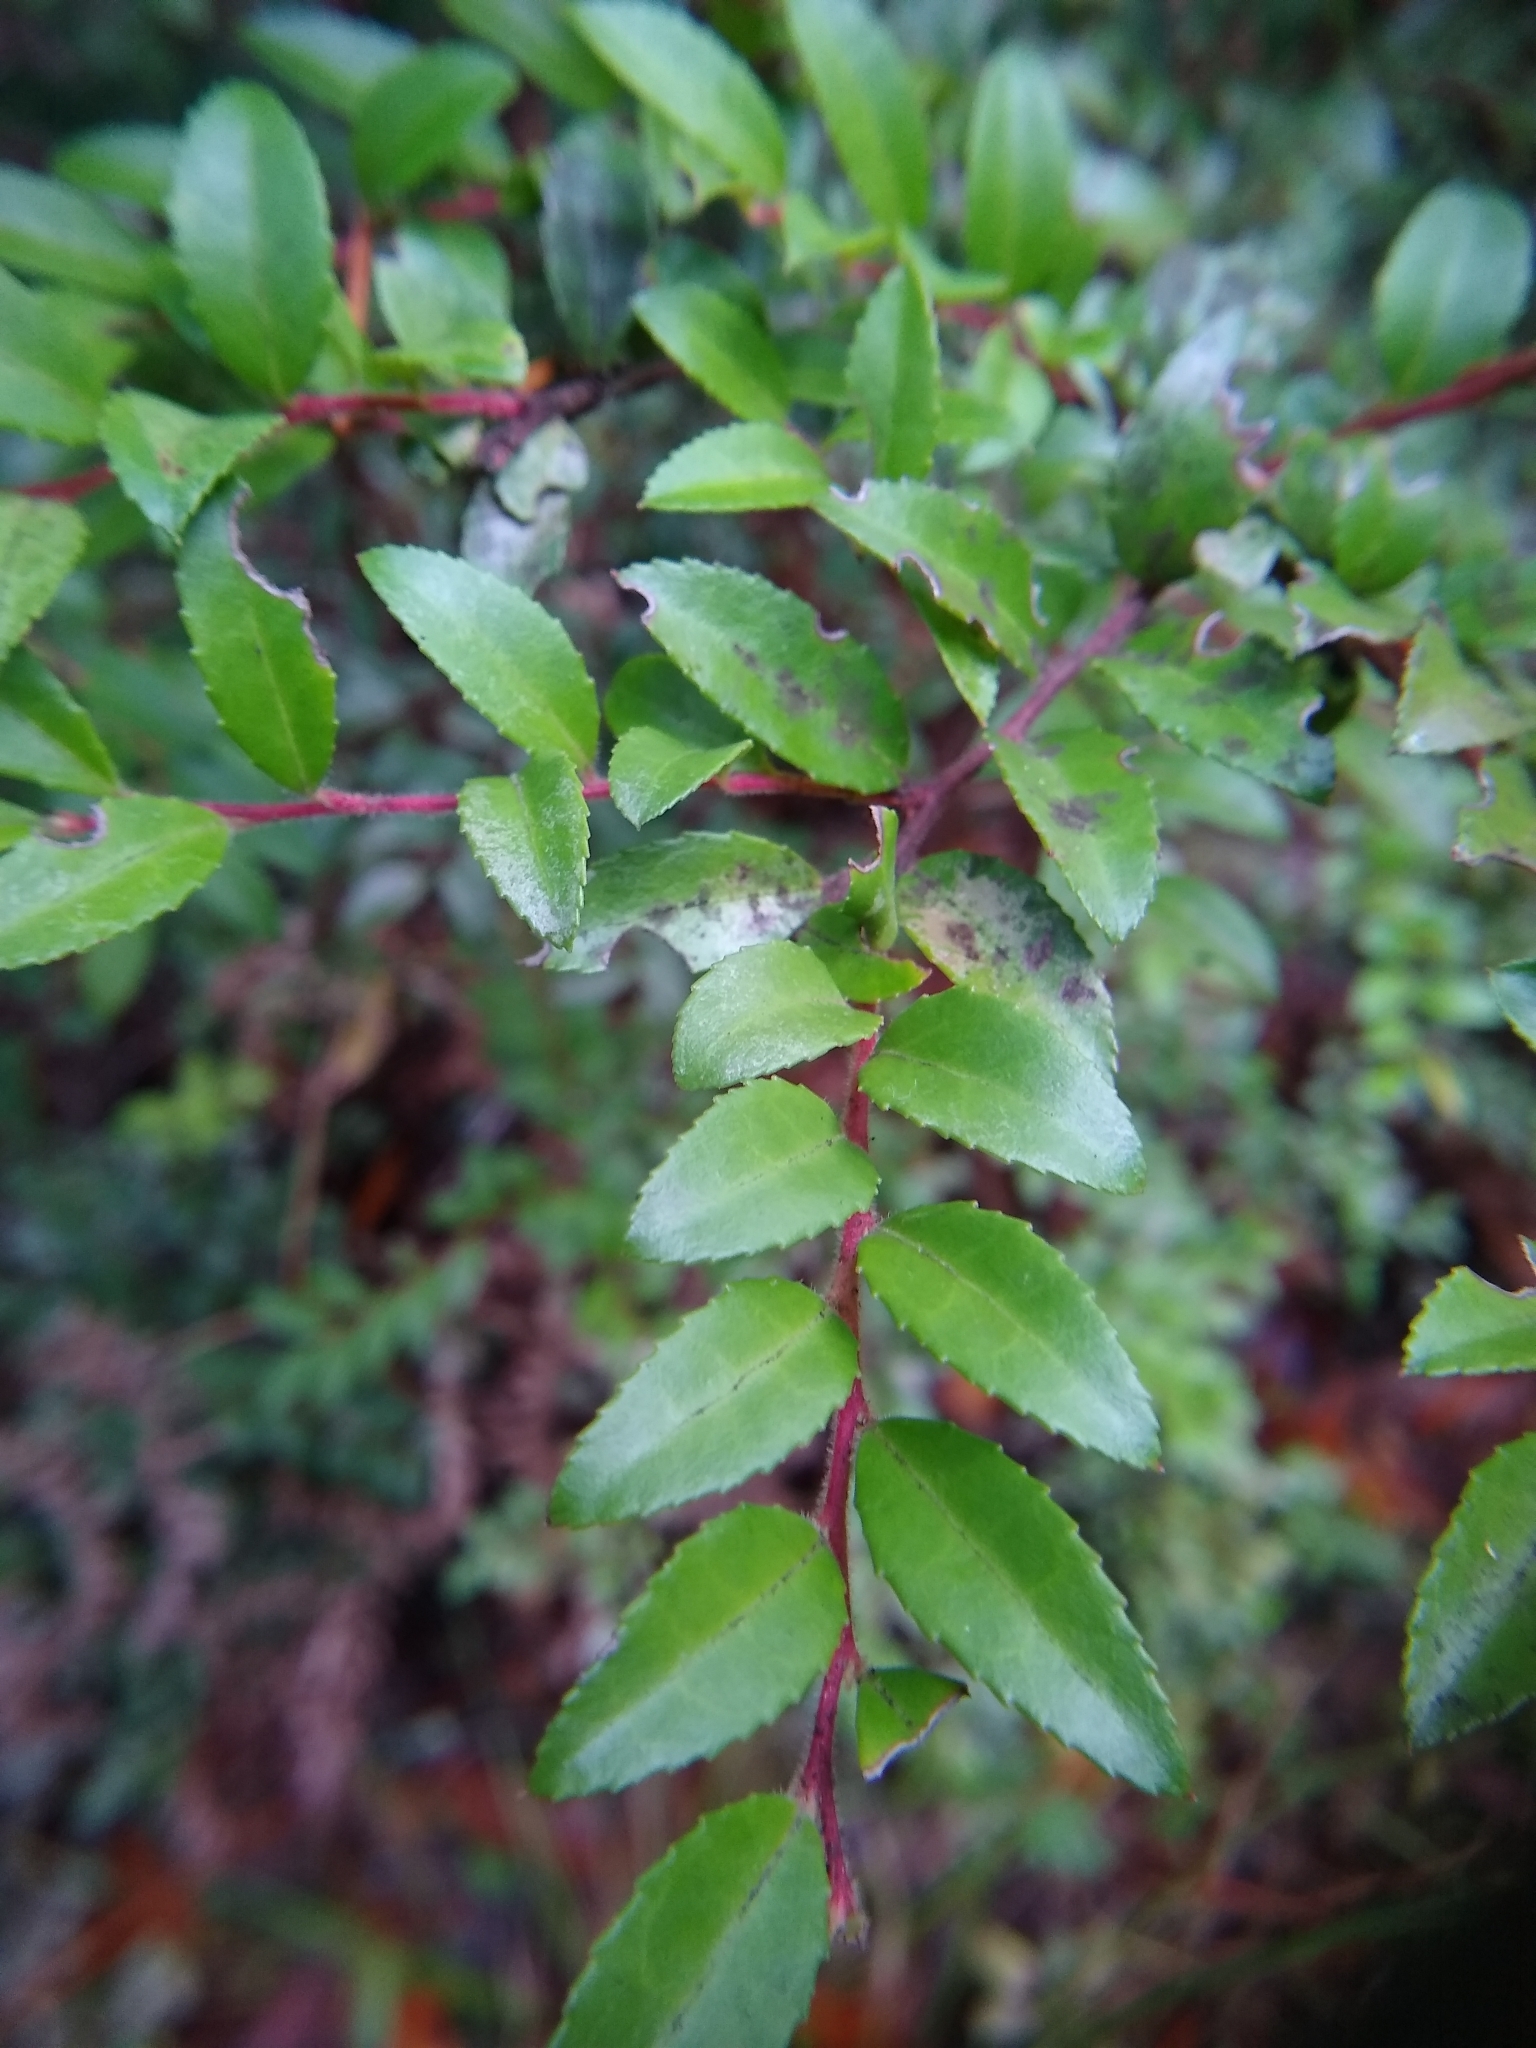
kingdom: Plantae
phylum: Tracheophyta
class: Magnoliopsida
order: Ericales
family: Ericaceae
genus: Vaccinium
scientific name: Vaccinium ovatum
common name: California-huckleberry
